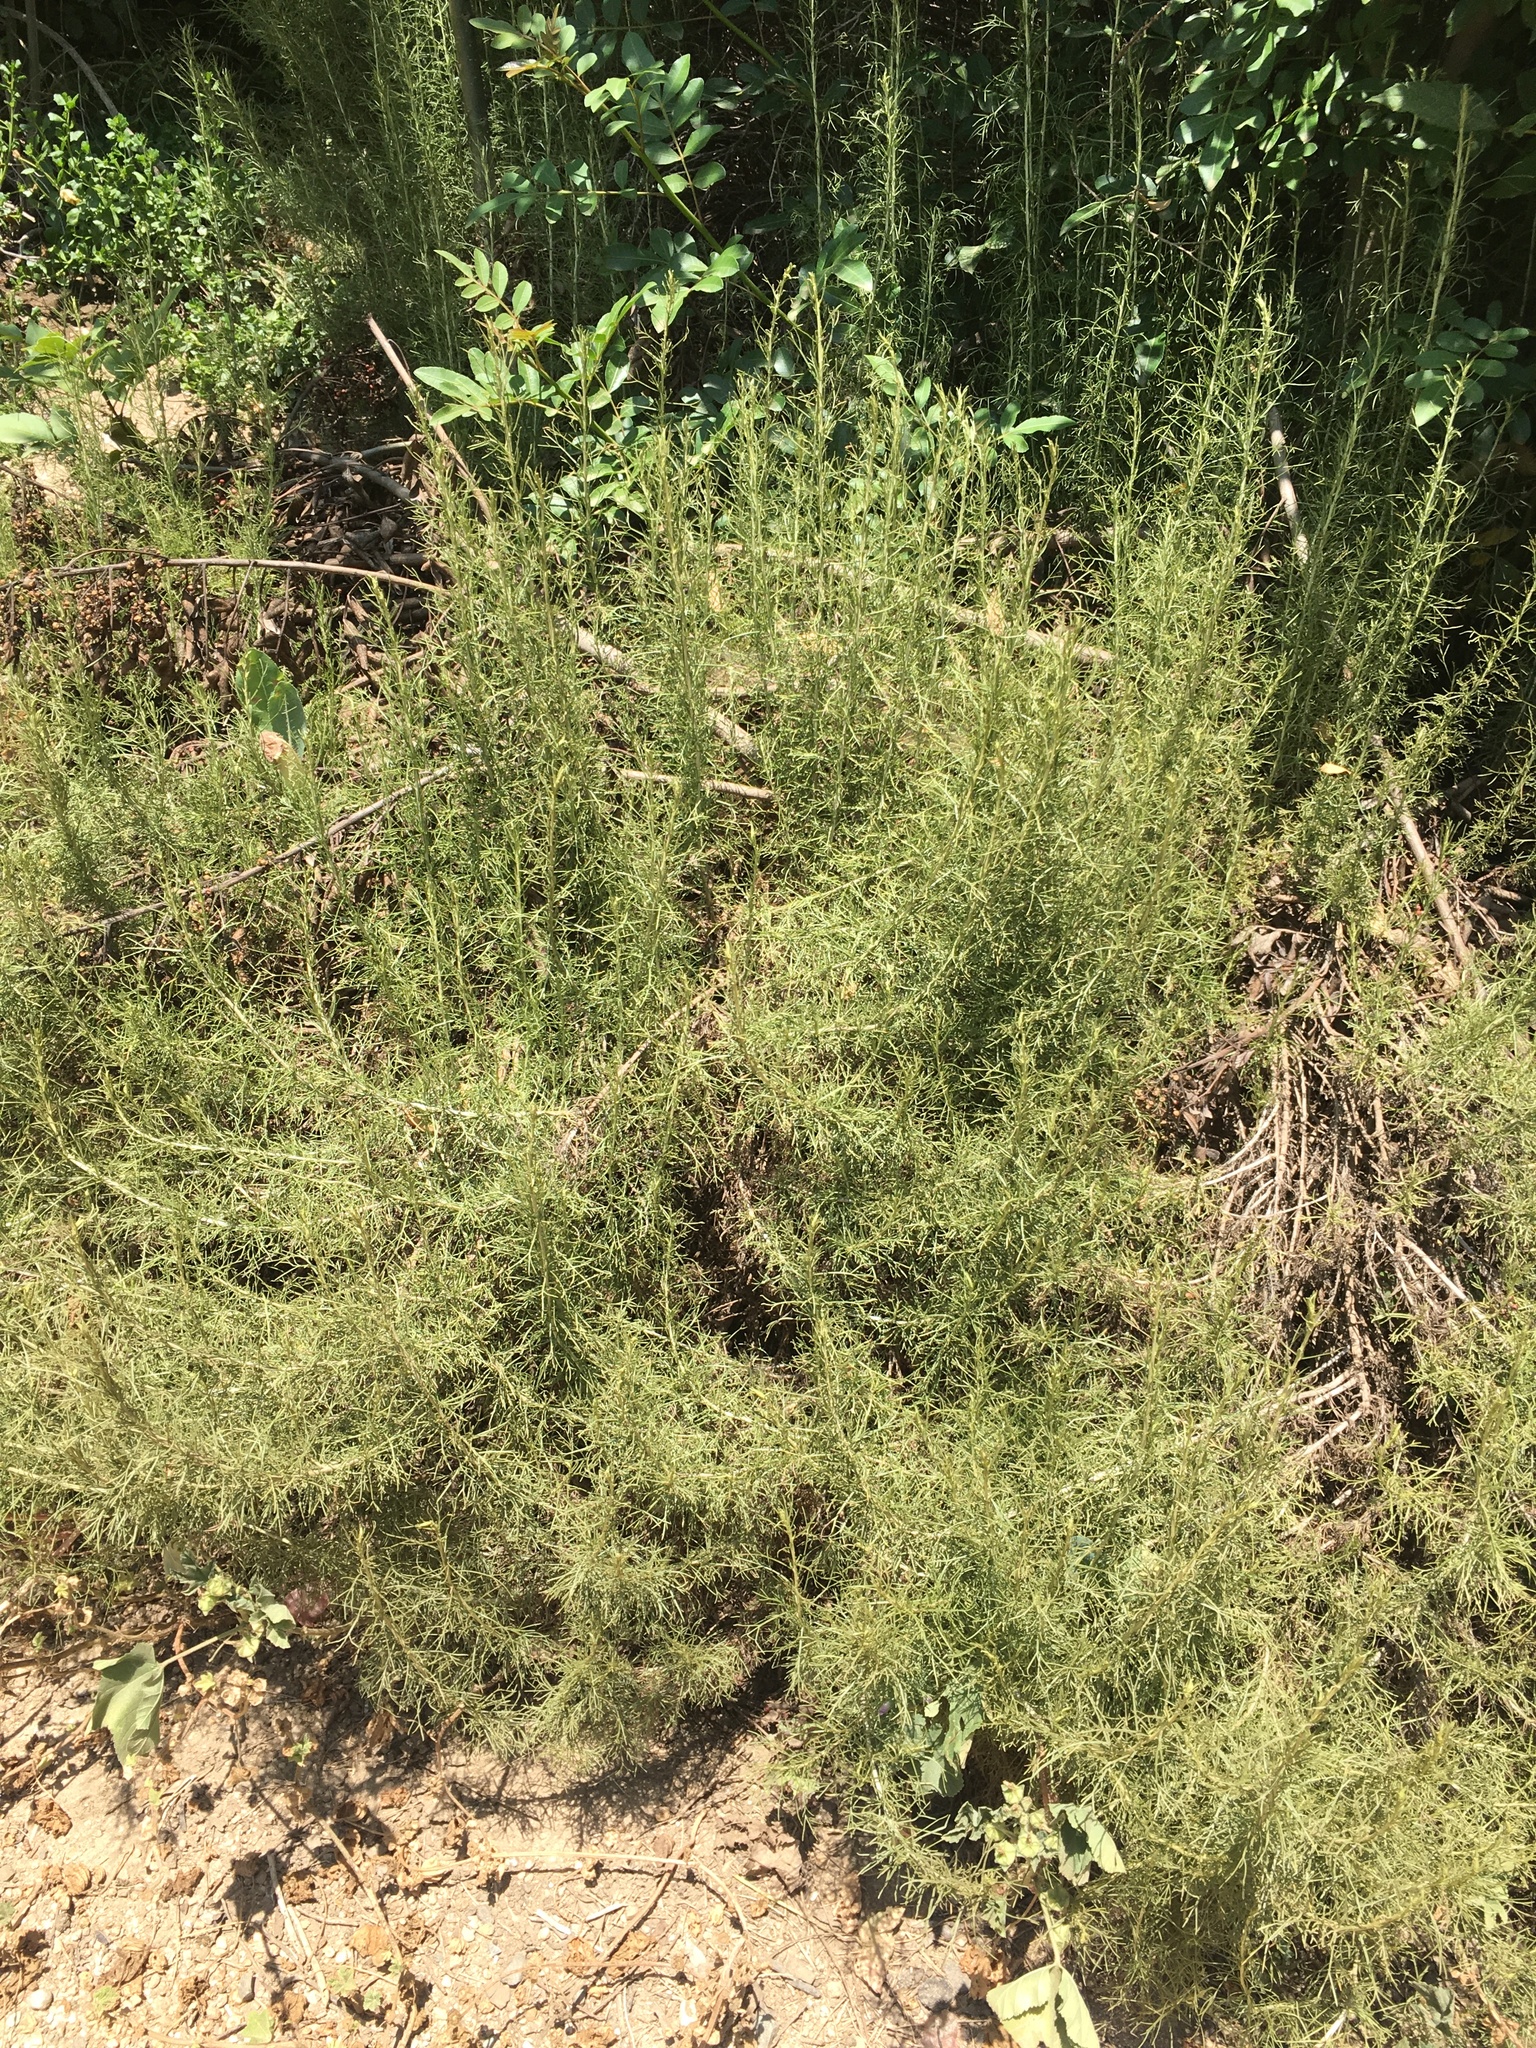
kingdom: Plantae
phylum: Tracheophyta
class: Magnoliopsida
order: Asterales
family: Asteraceae
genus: Artemisia
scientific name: Artemisia californica
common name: California sagebrush
